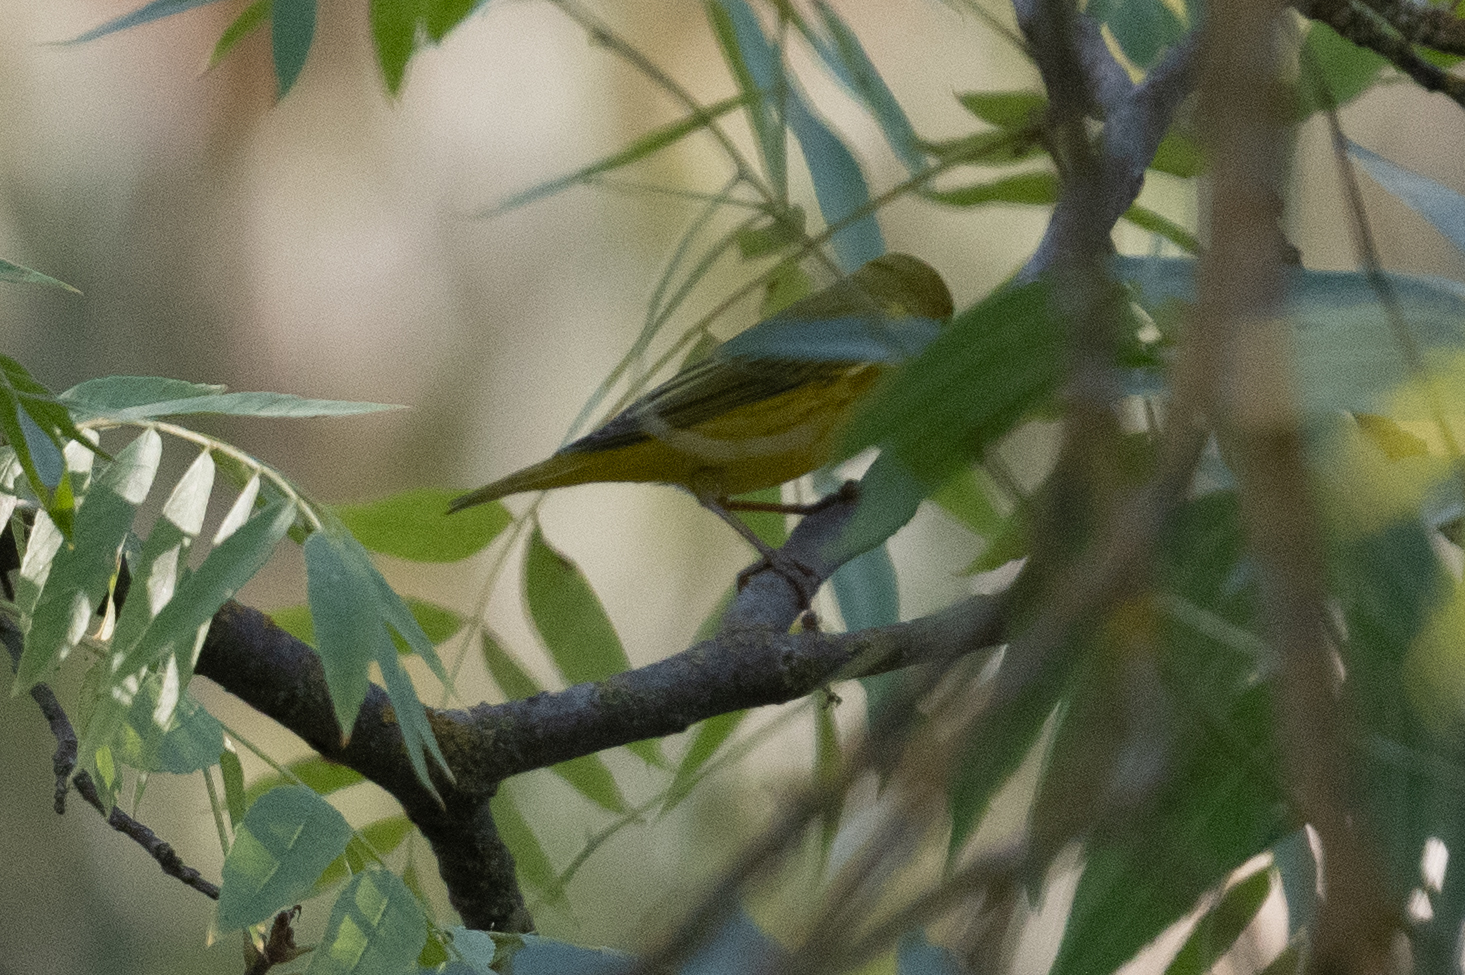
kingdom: Animalia
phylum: Chordata
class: Aves
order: Passeriformes
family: Parulidae
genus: Setophaga
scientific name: Setophaga petechia
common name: Yellow warbler
